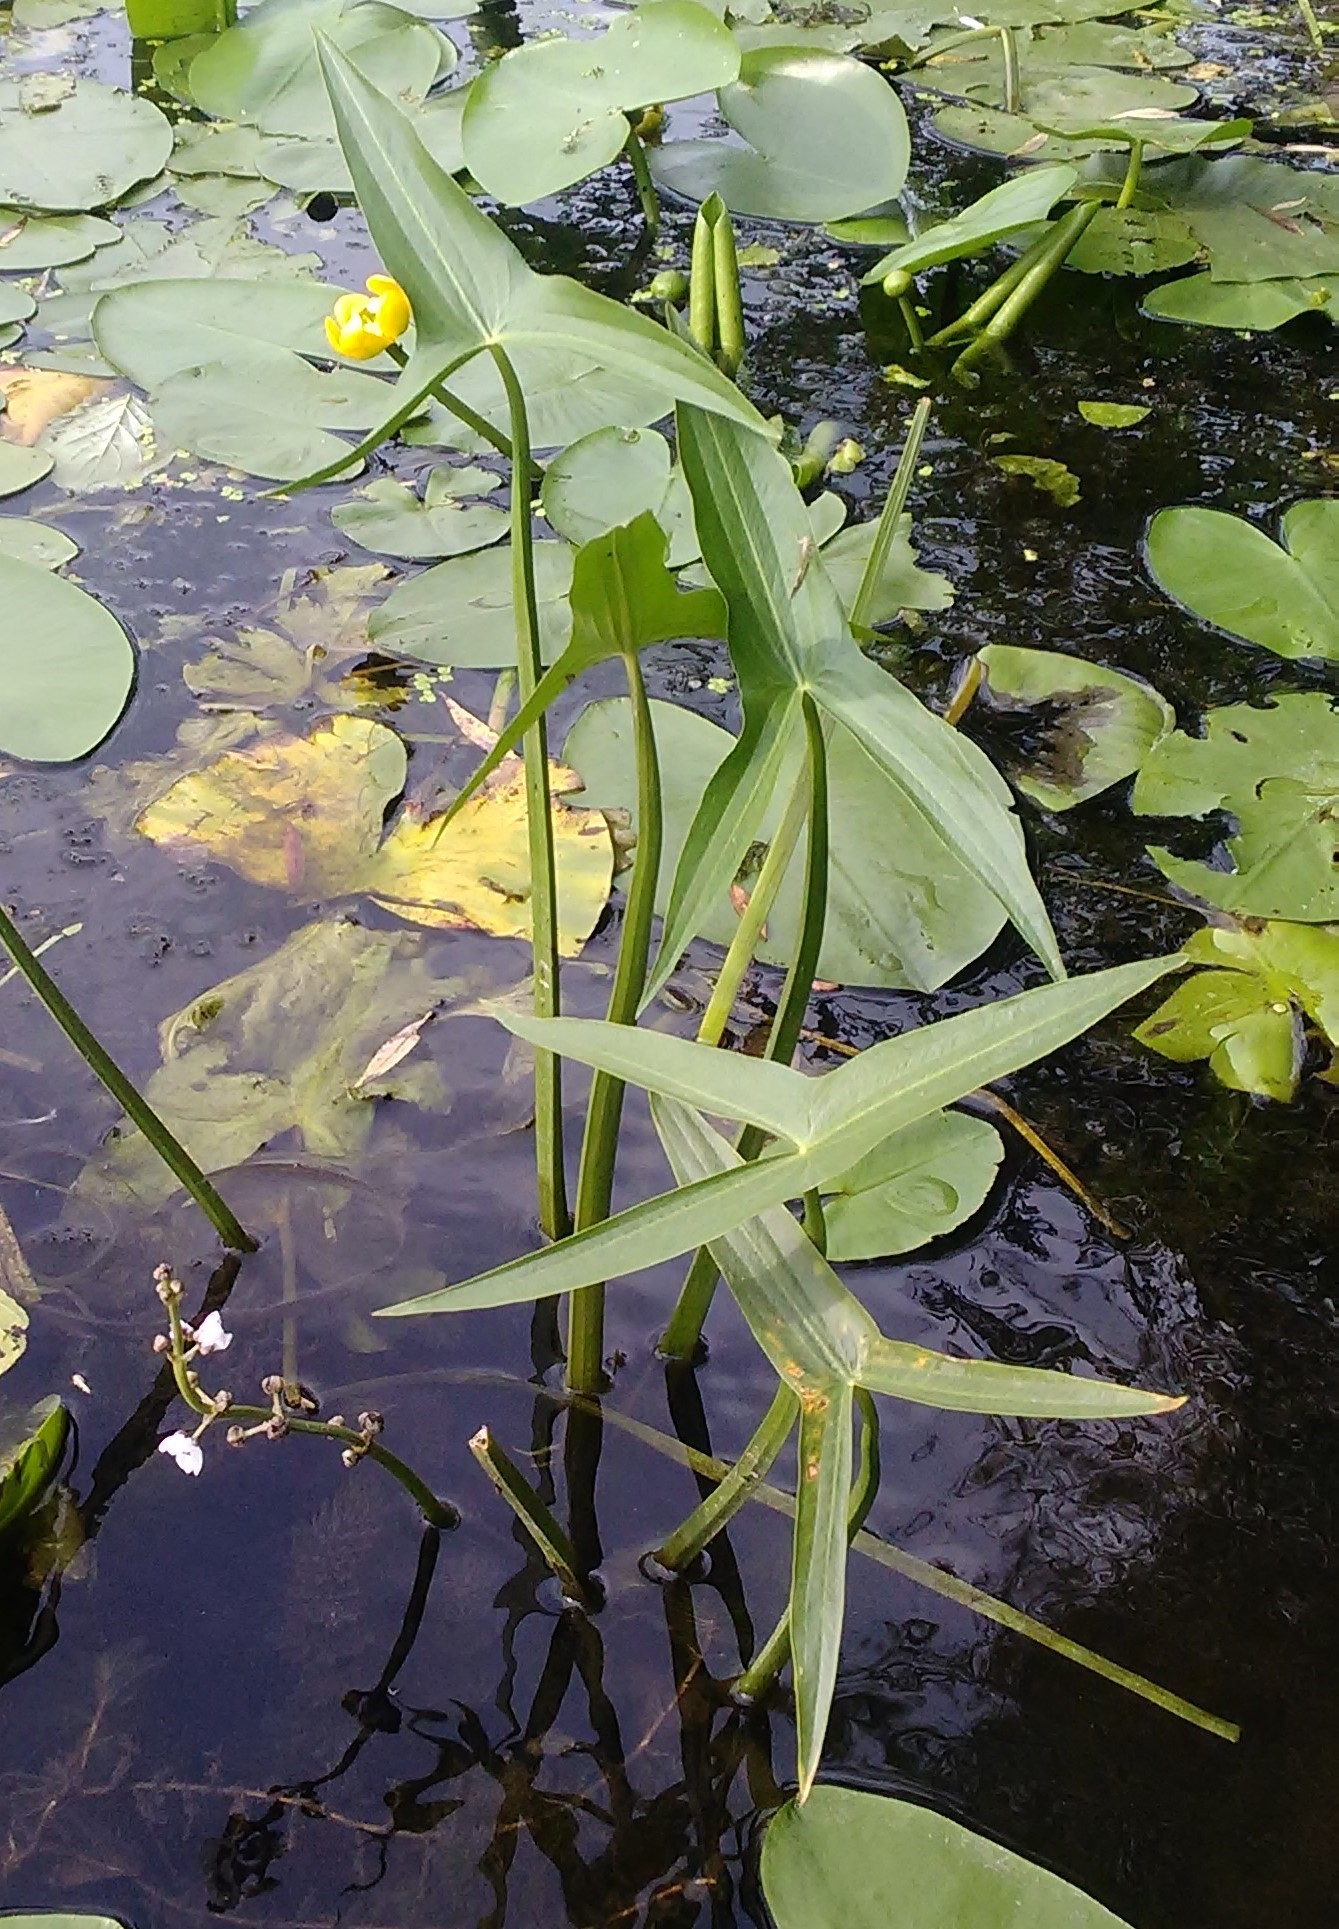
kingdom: Plantae
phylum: Tracheophyta
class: Liliopsida
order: Alismatales
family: Alismataceae
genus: Sagittaria
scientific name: Sagittaria sagittifolia
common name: Arrowhead
